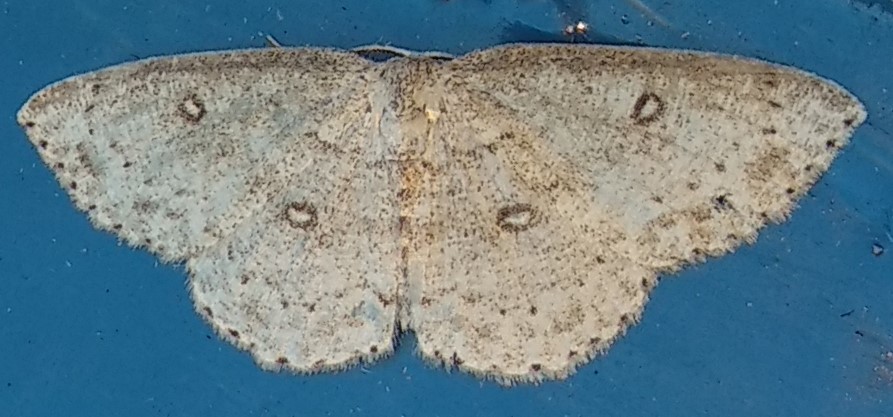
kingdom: Animalia
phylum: Arthropoda
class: Insecta
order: Lepidoptera
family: Geometridae
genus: Cyclophora
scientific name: Cyclophora pendulinaria
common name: Sweet fern geometer
